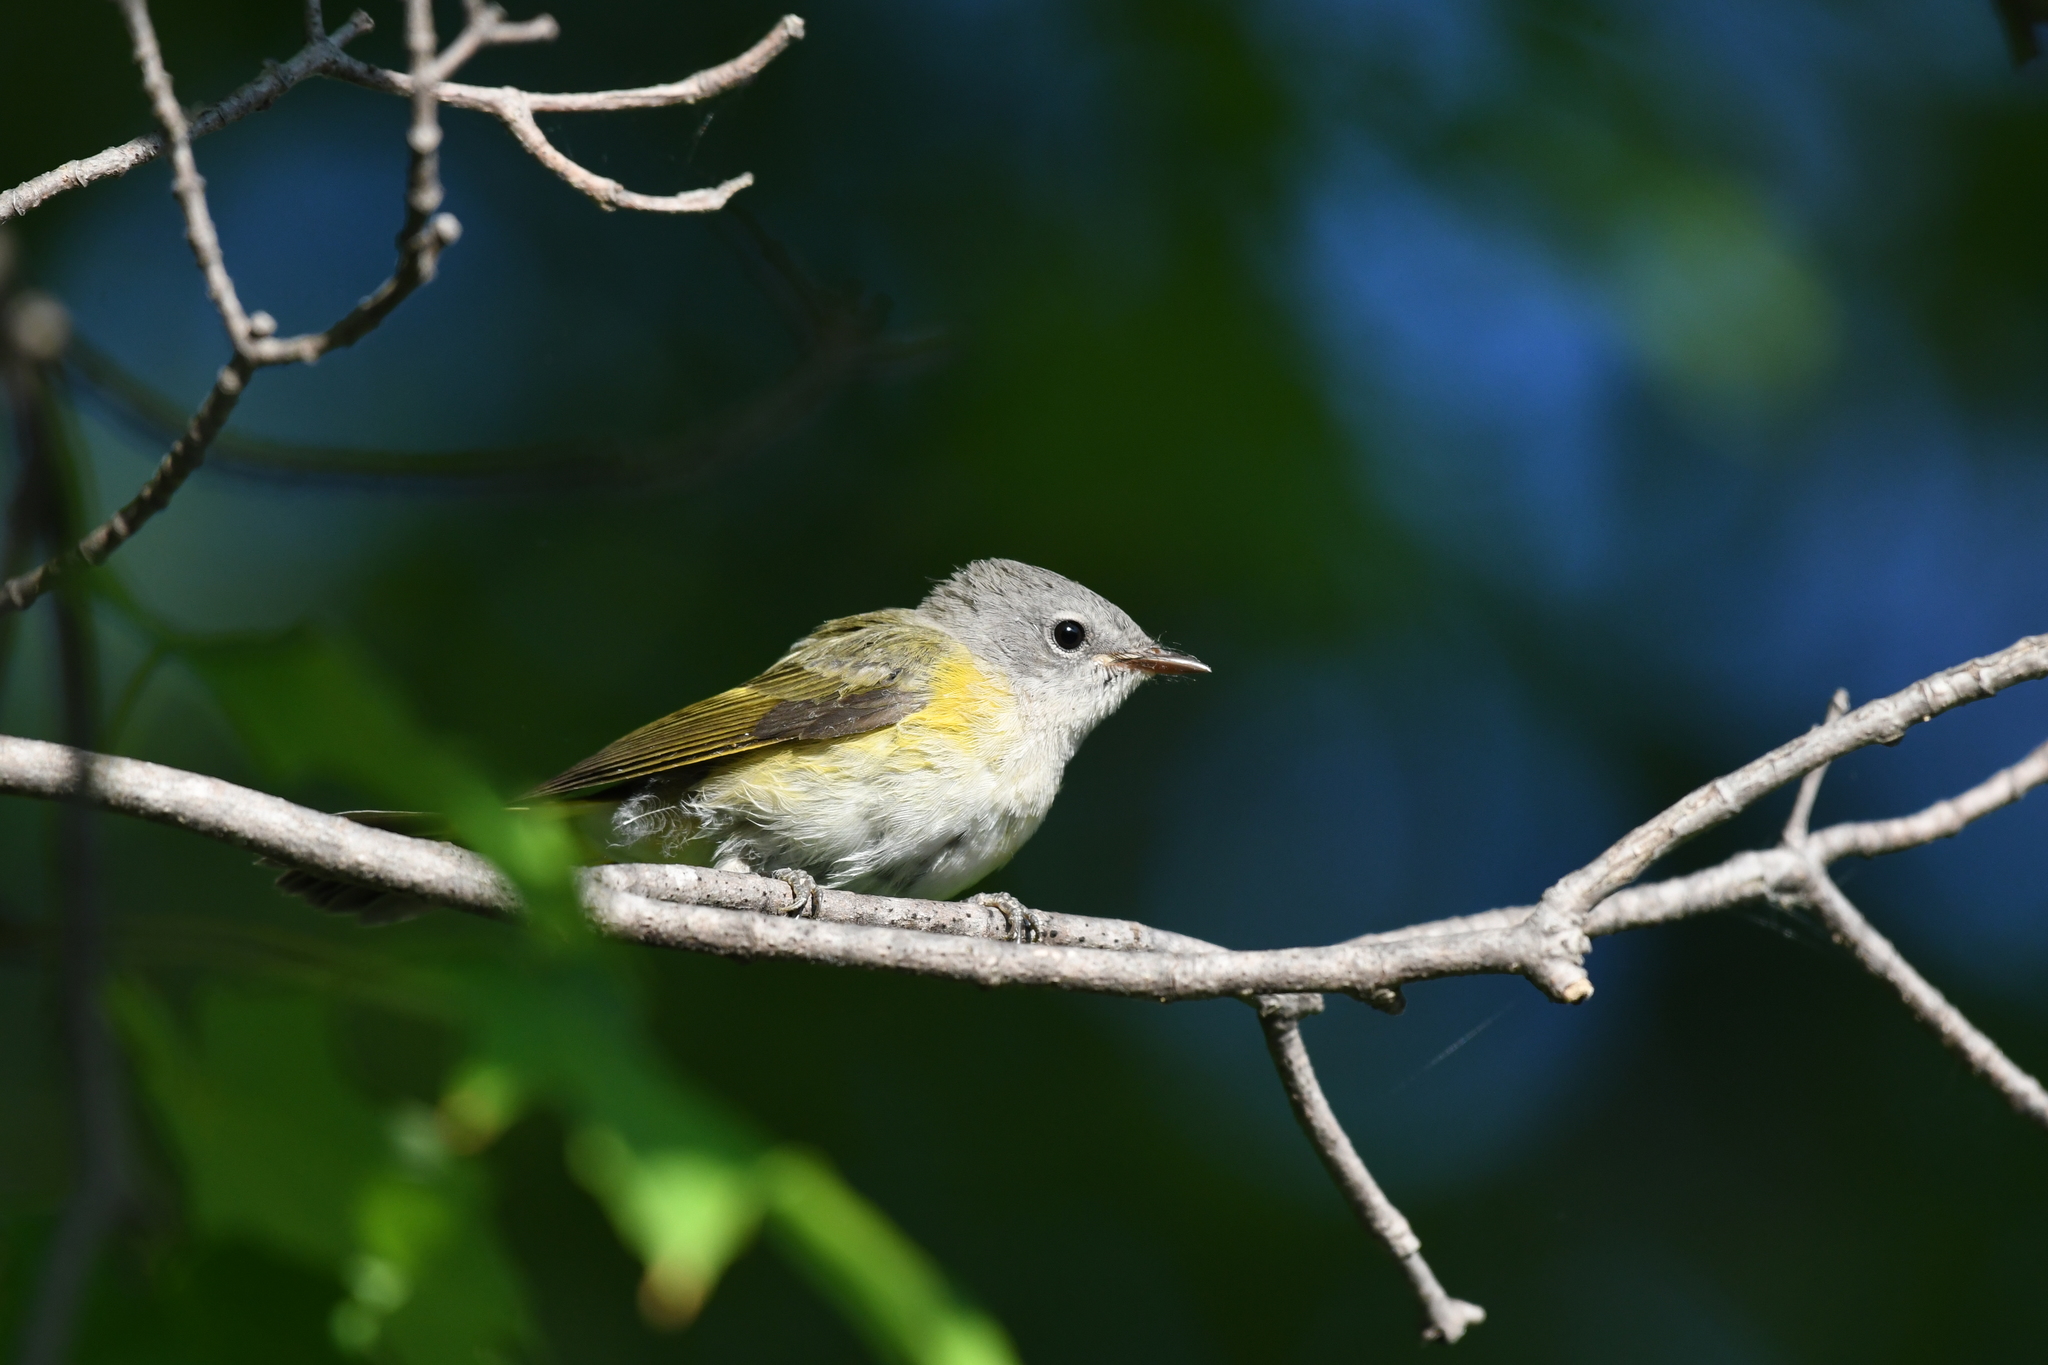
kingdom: Animalia
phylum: Chordata
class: Aves
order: Passeriformes
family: Parulidae
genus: Setophaga
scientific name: Setophaga ruticilla
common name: American redstart
